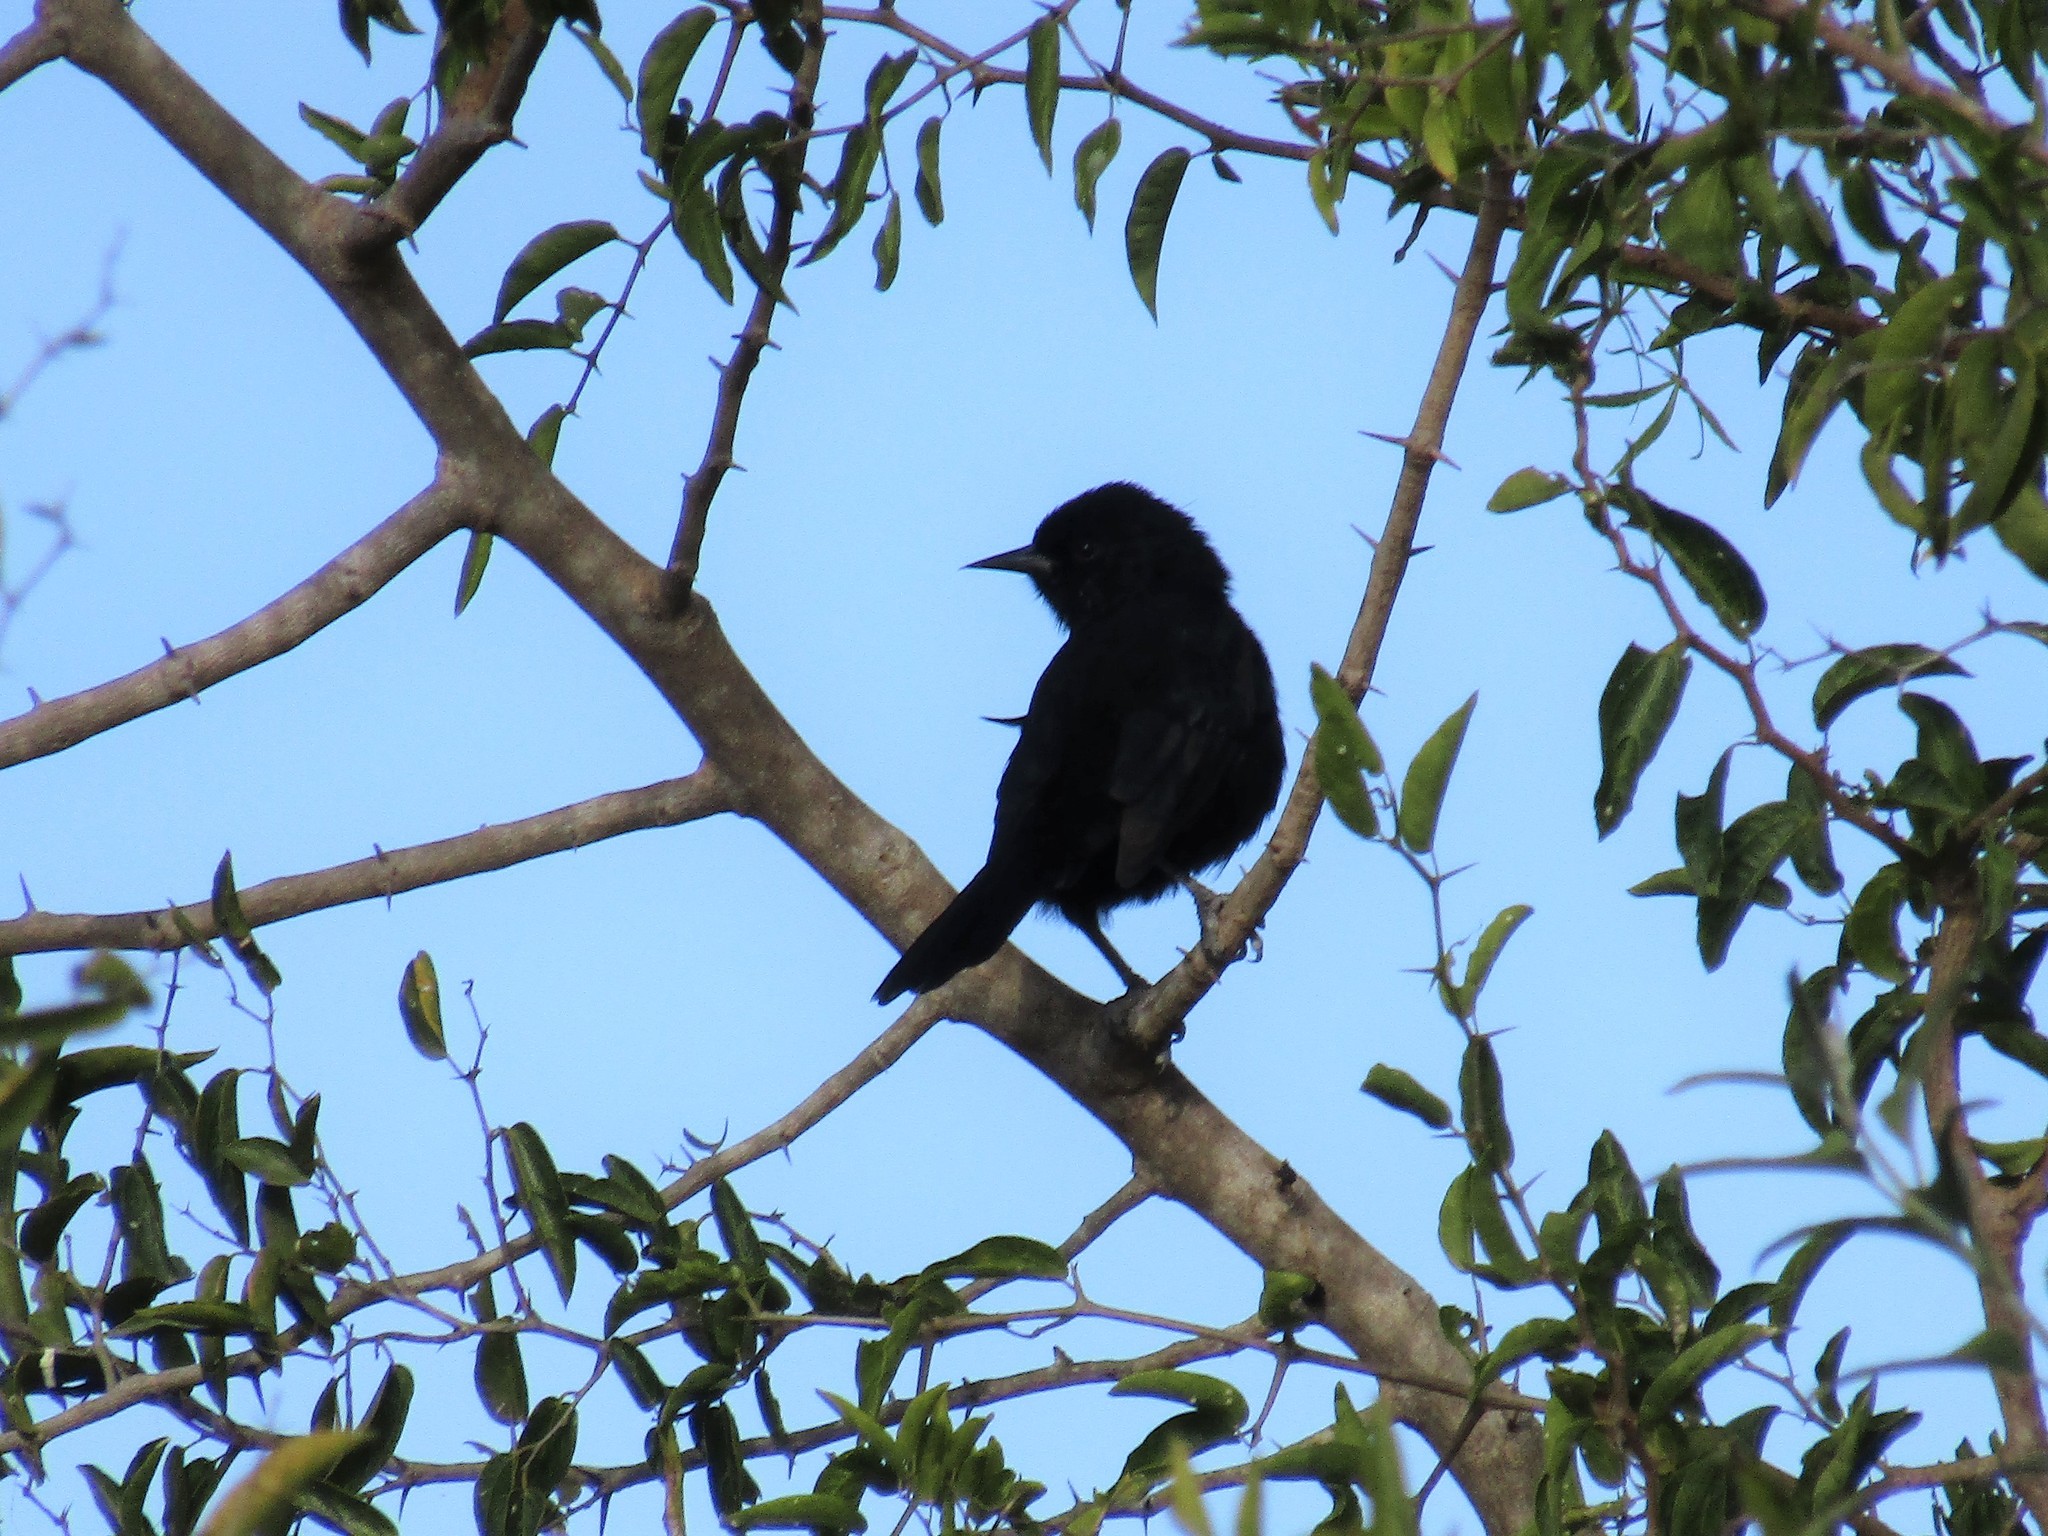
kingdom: Animalia
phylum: Chordata
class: Aves
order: Passeriformes
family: Icteridae
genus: Icterus
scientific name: Icterus cayanensis
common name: Epaulet oriole
